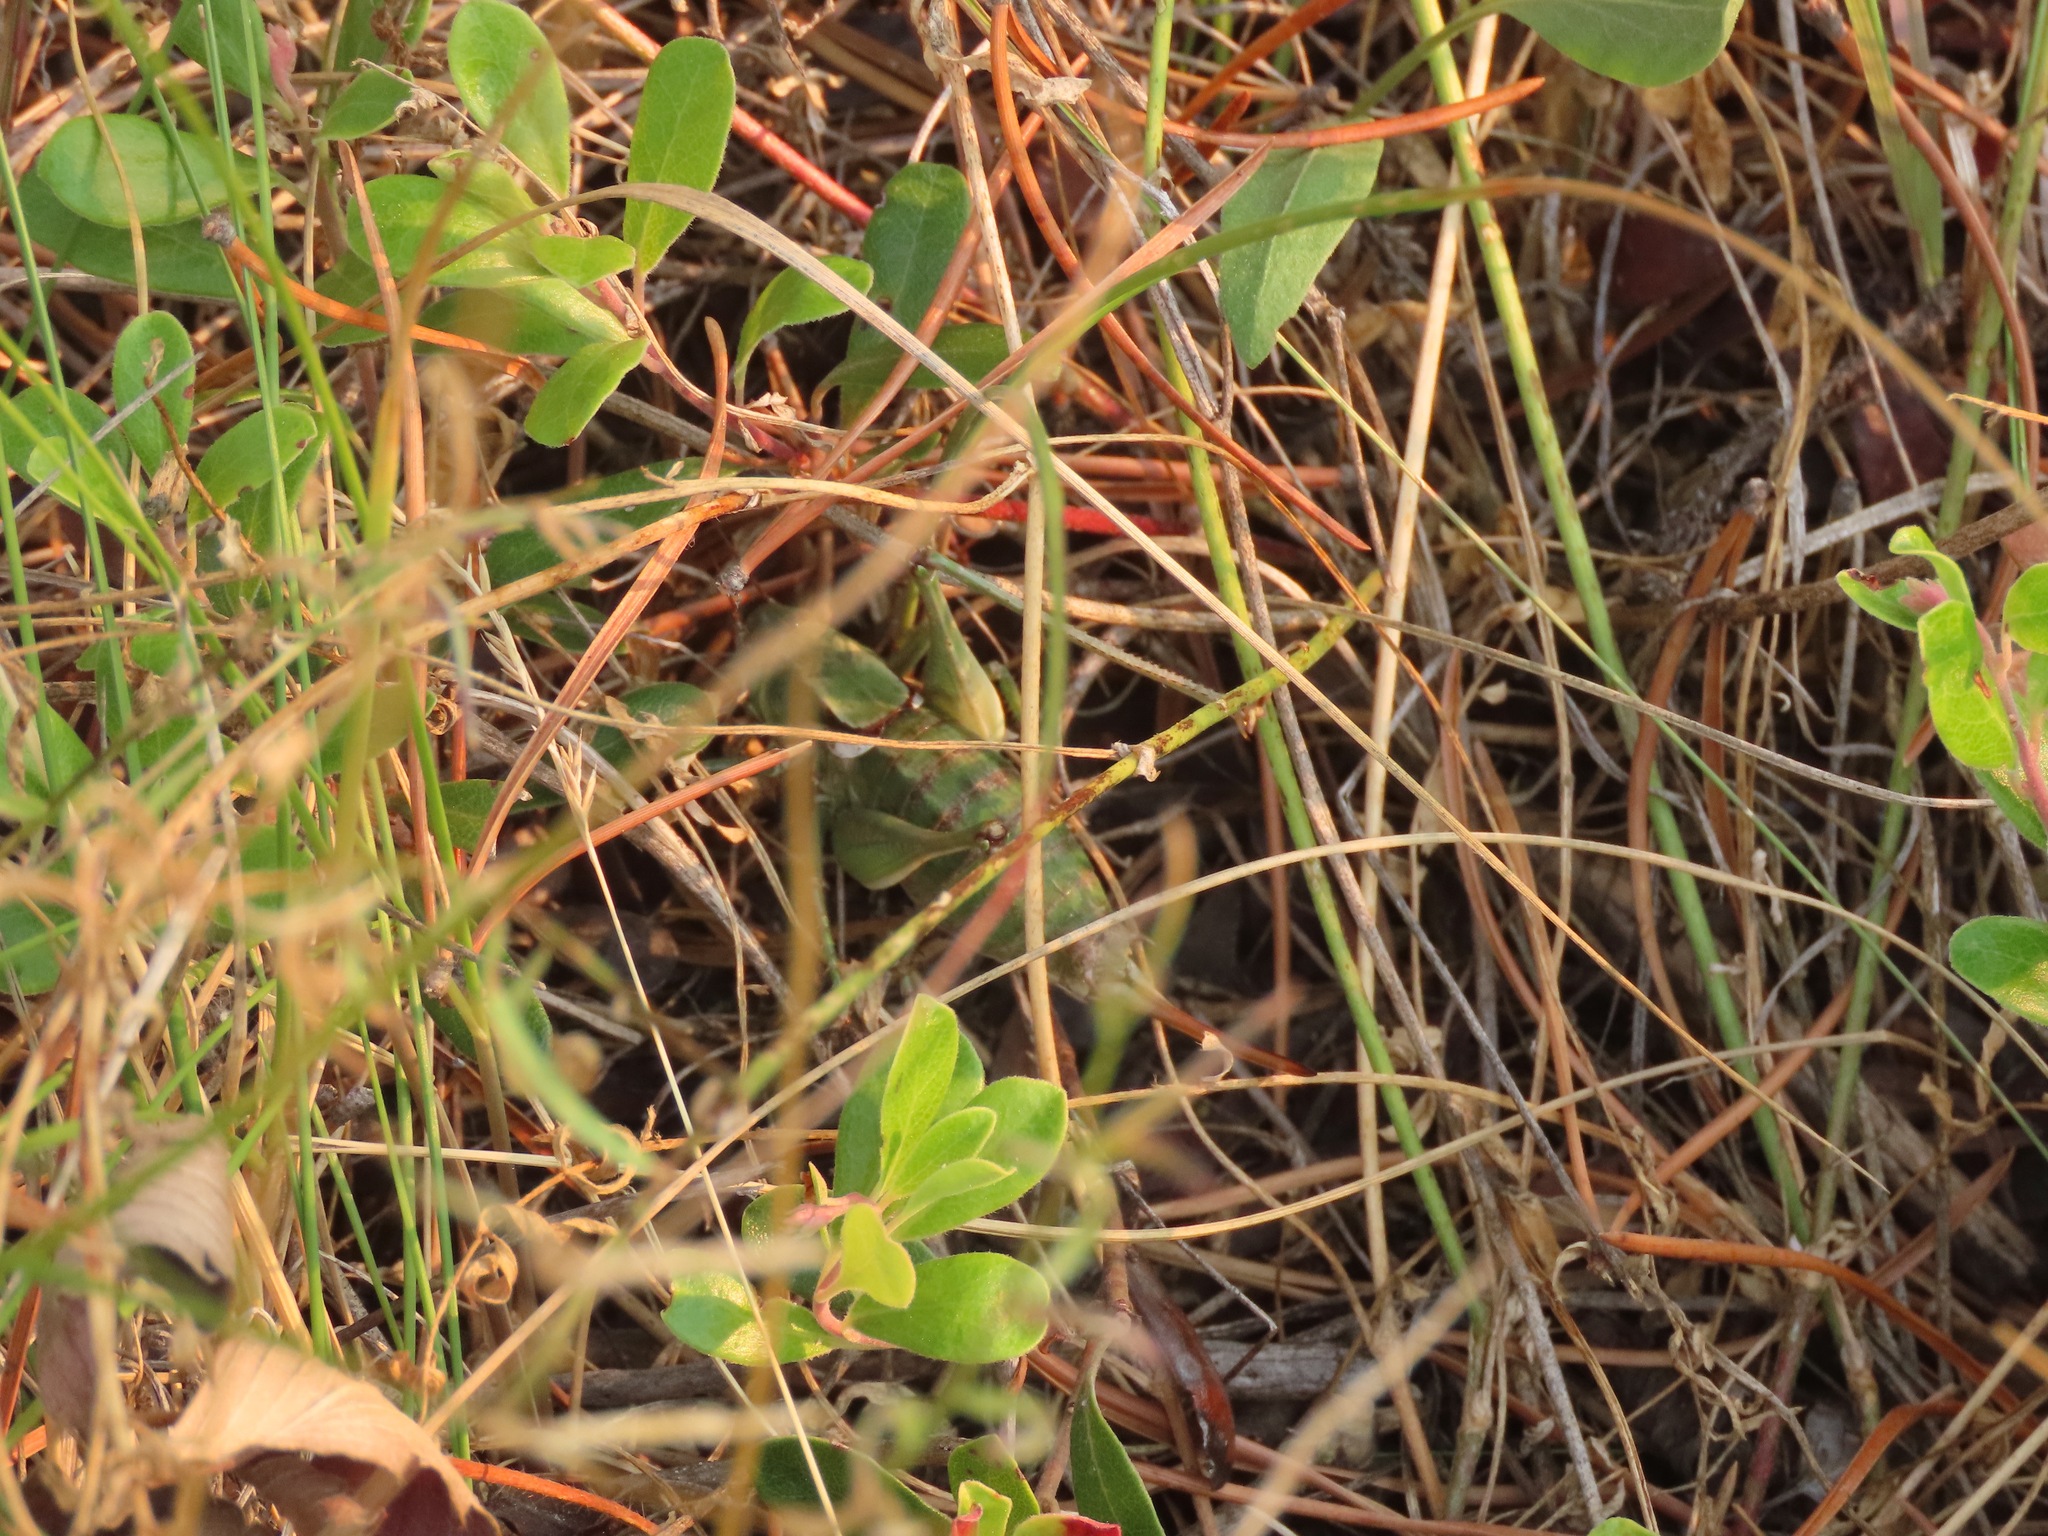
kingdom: Animalia
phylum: Arthropoda
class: Insecta
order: Orthoptera
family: Tettigoniidae
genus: Anabrus
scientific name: Anabrus longipes
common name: Long-legged anabrus
